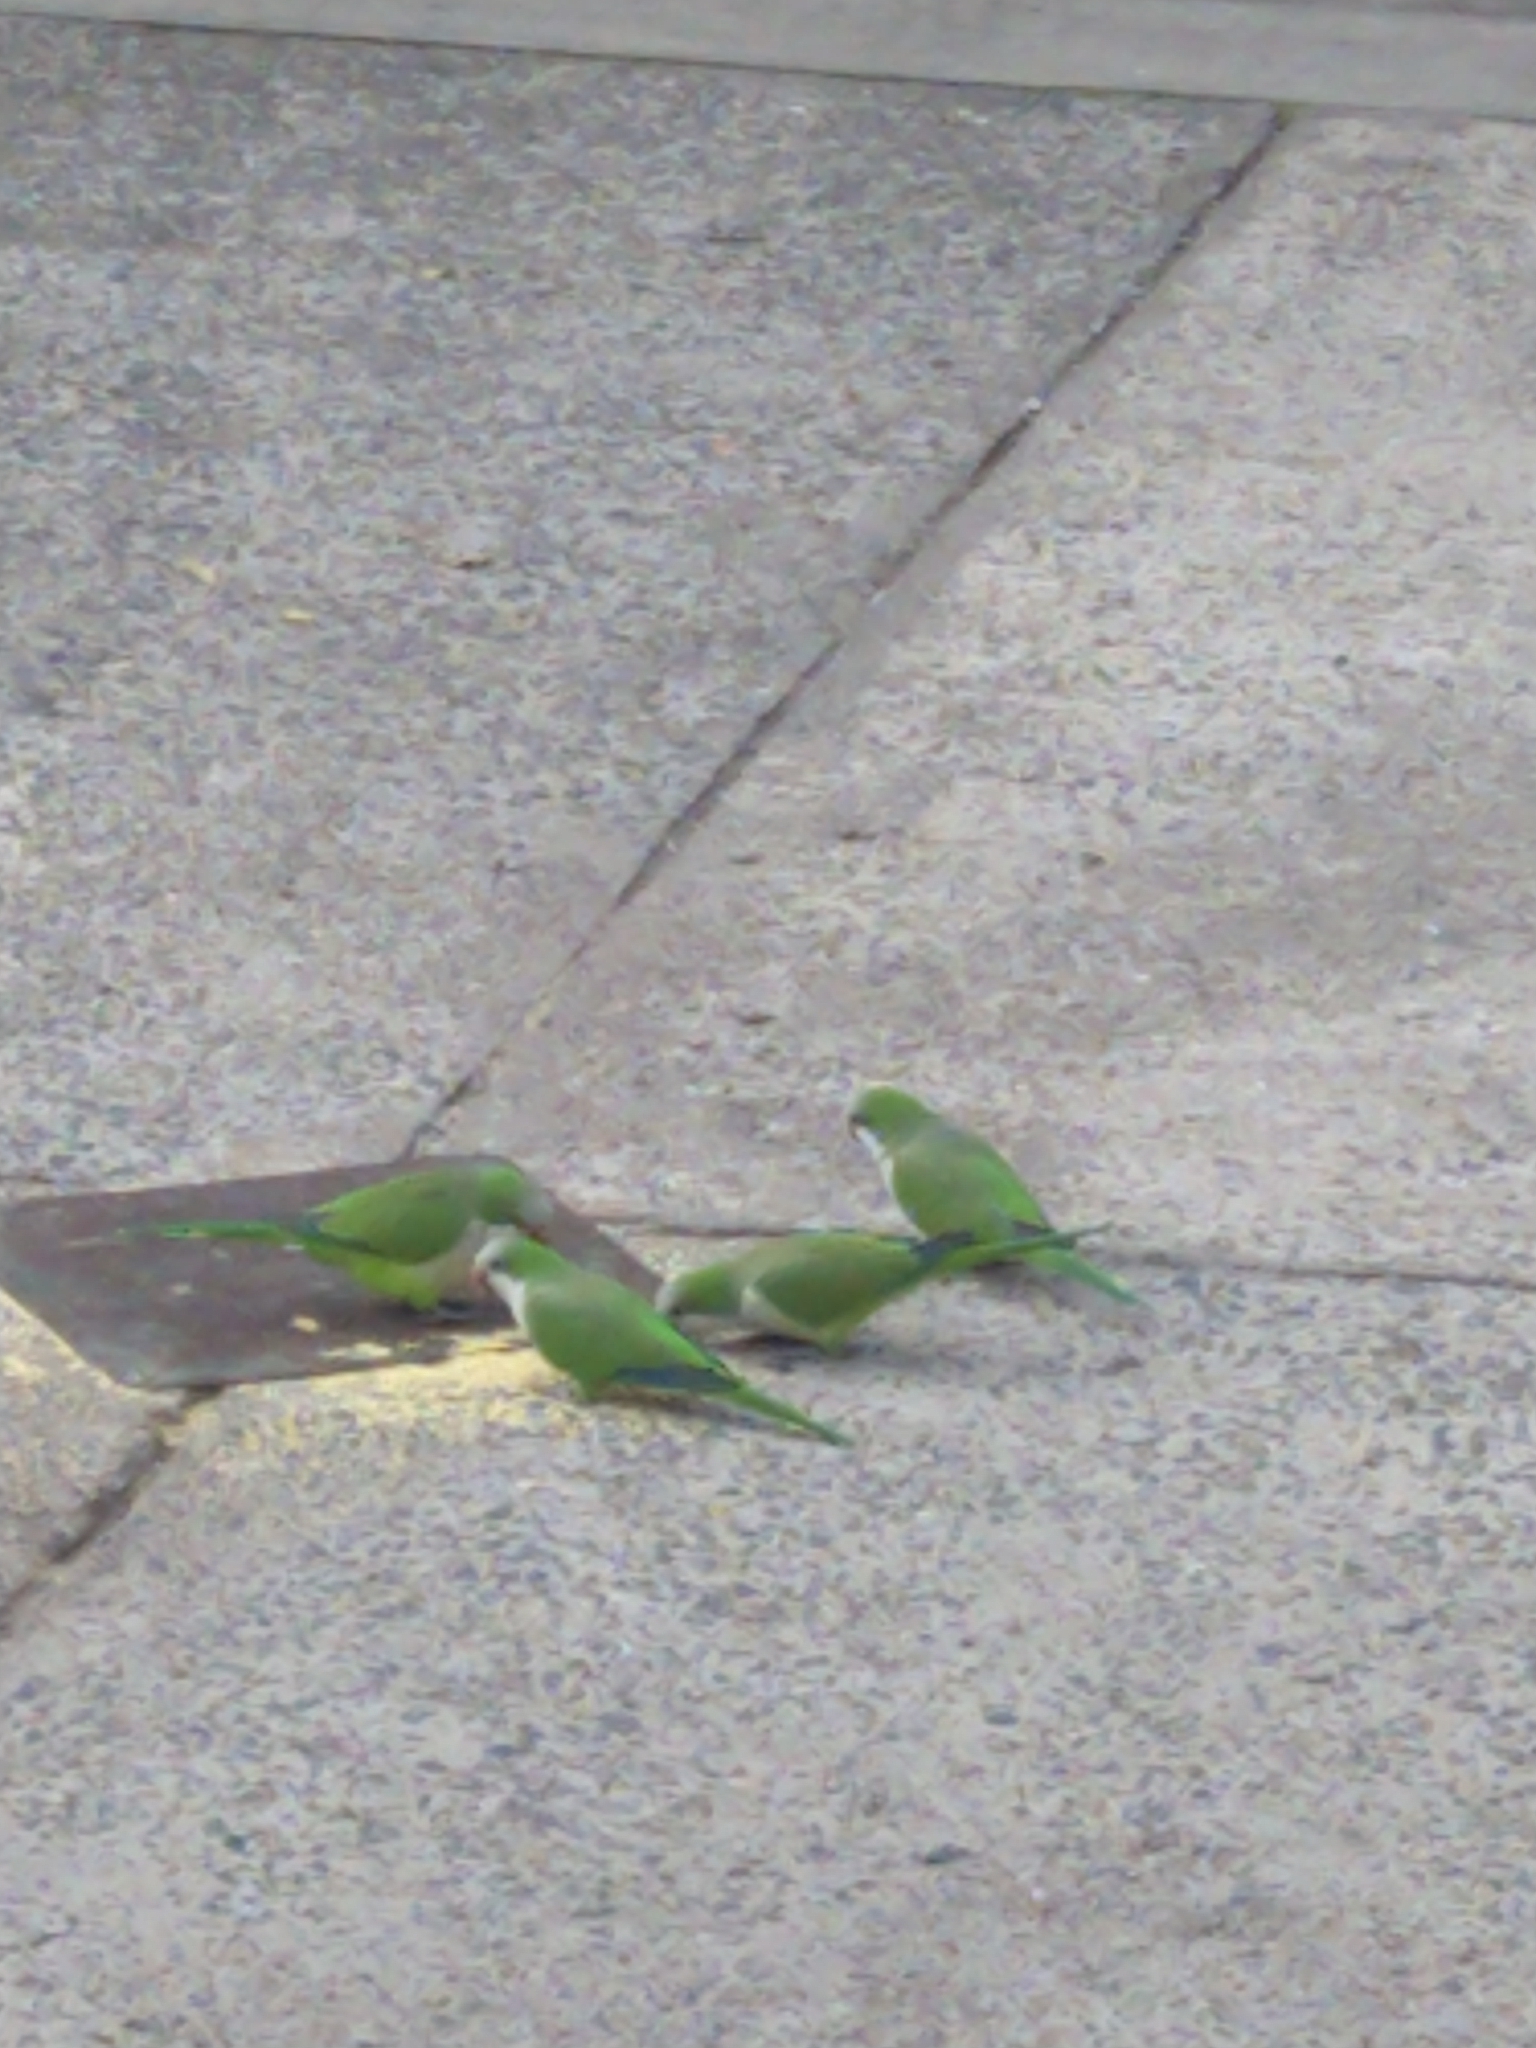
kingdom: Animalia
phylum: Chordata
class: Aves
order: Psittaciformes
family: Psittacidae
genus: Myiopsitta
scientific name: Myiopsitta monachus
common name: Monk parakeet
